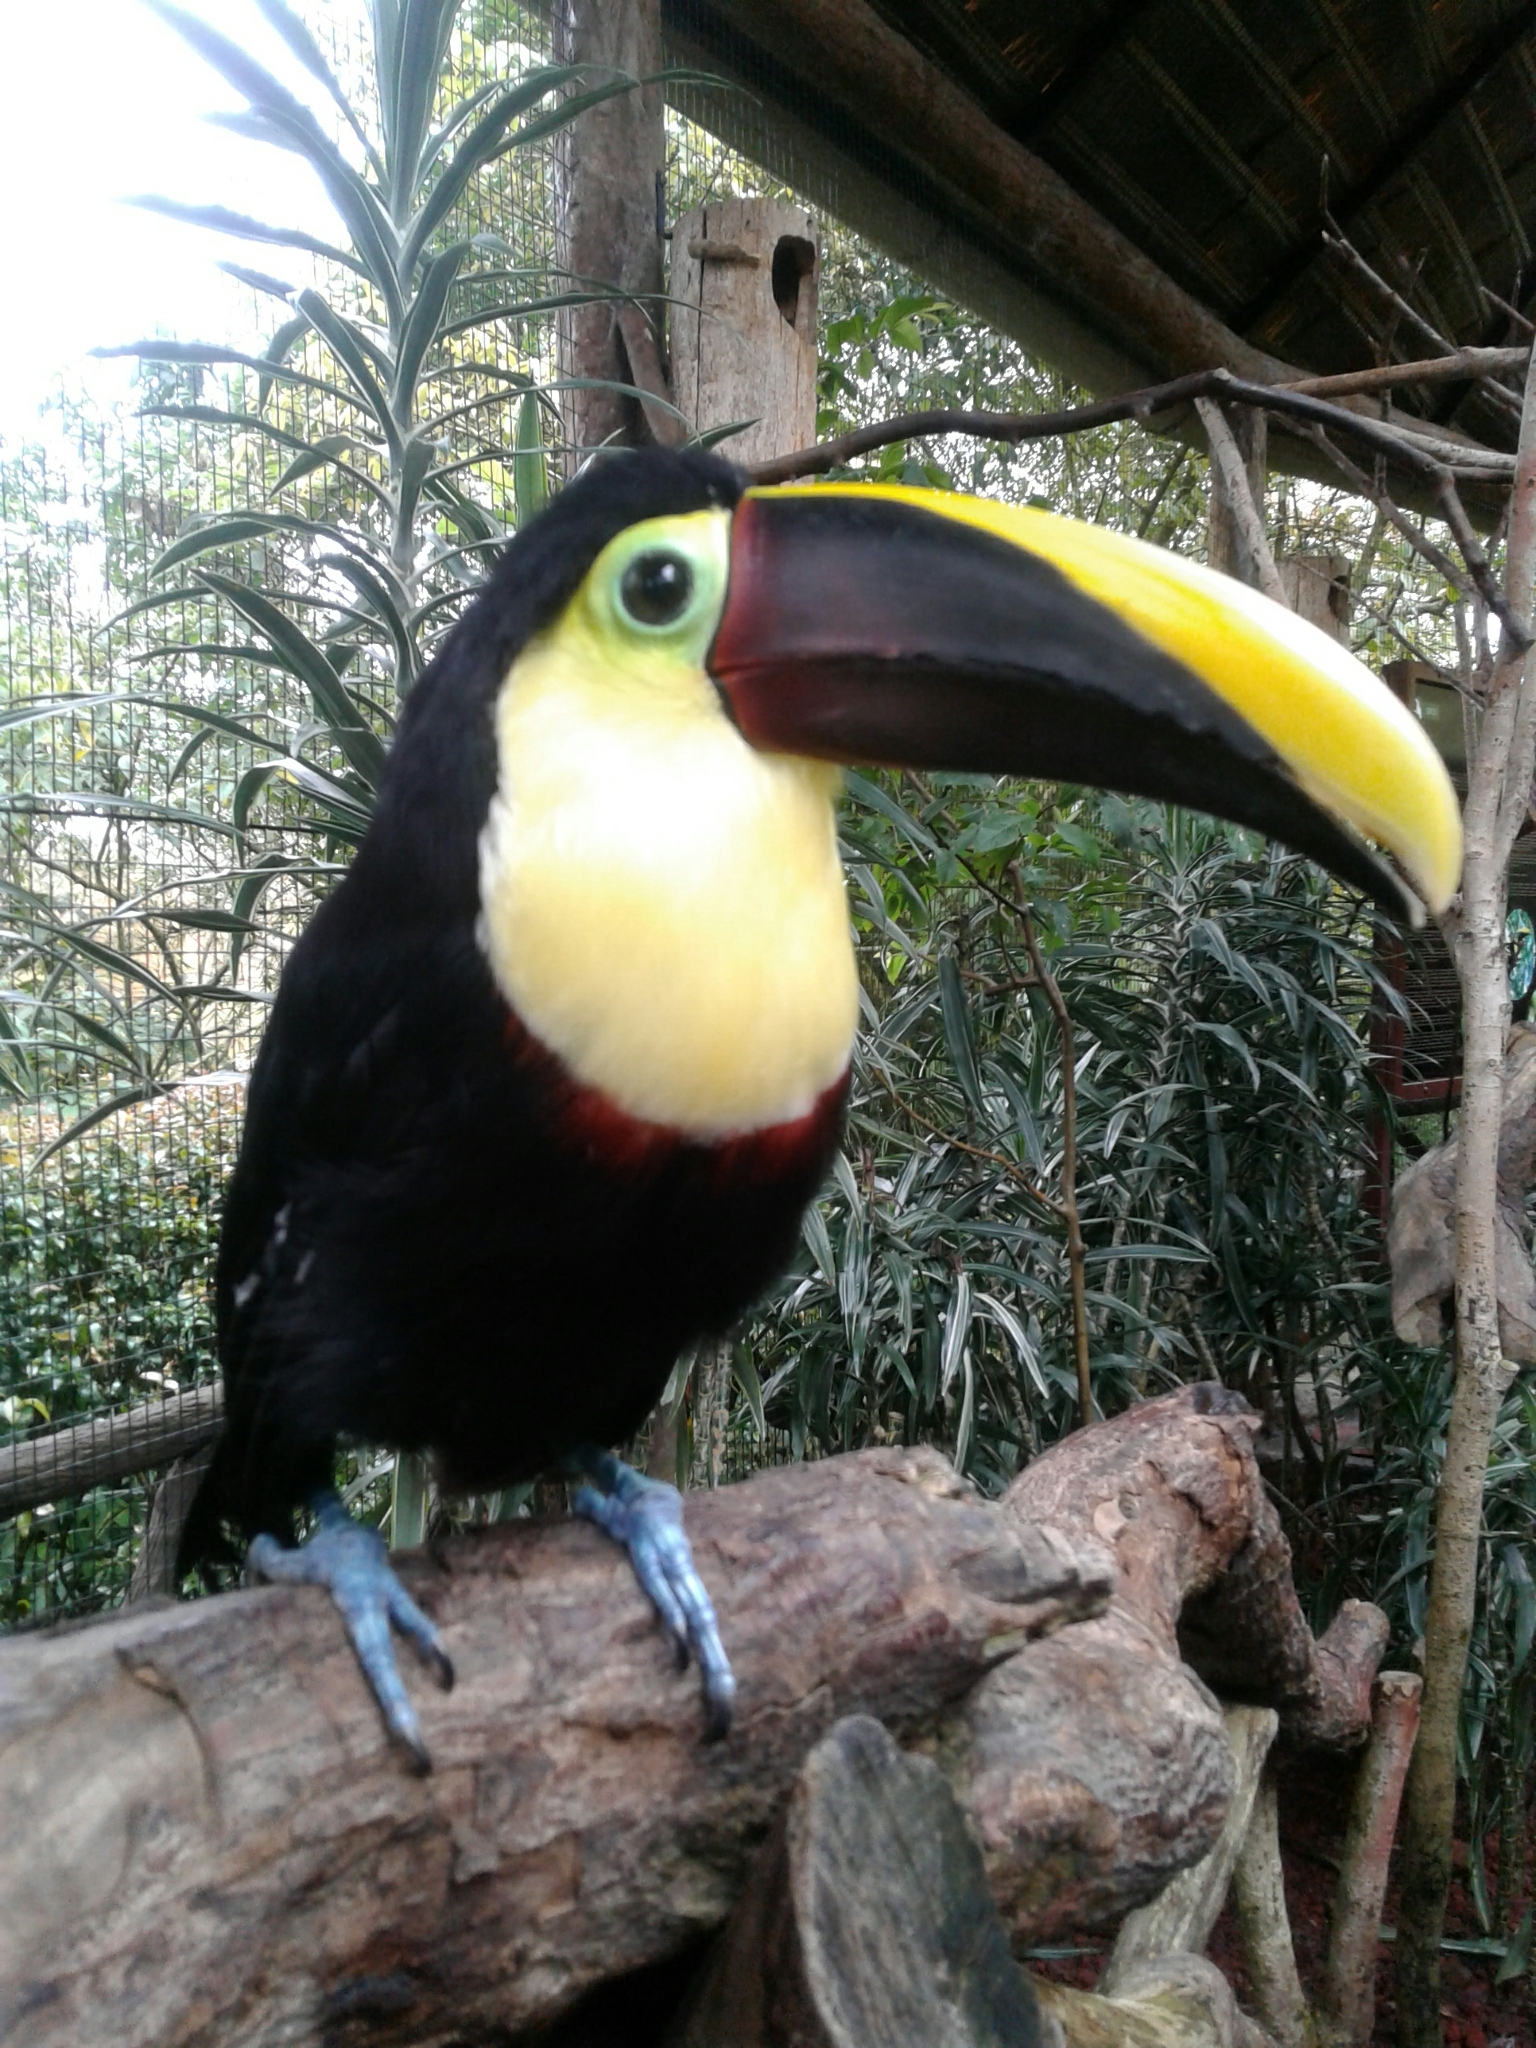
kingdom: Animalia
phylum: Chordata
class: Aves
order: Piciformes
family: Ramphastidae
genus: Ramphastos
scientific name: Ramphastos ambiguus
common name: Yellow-throated toucan
